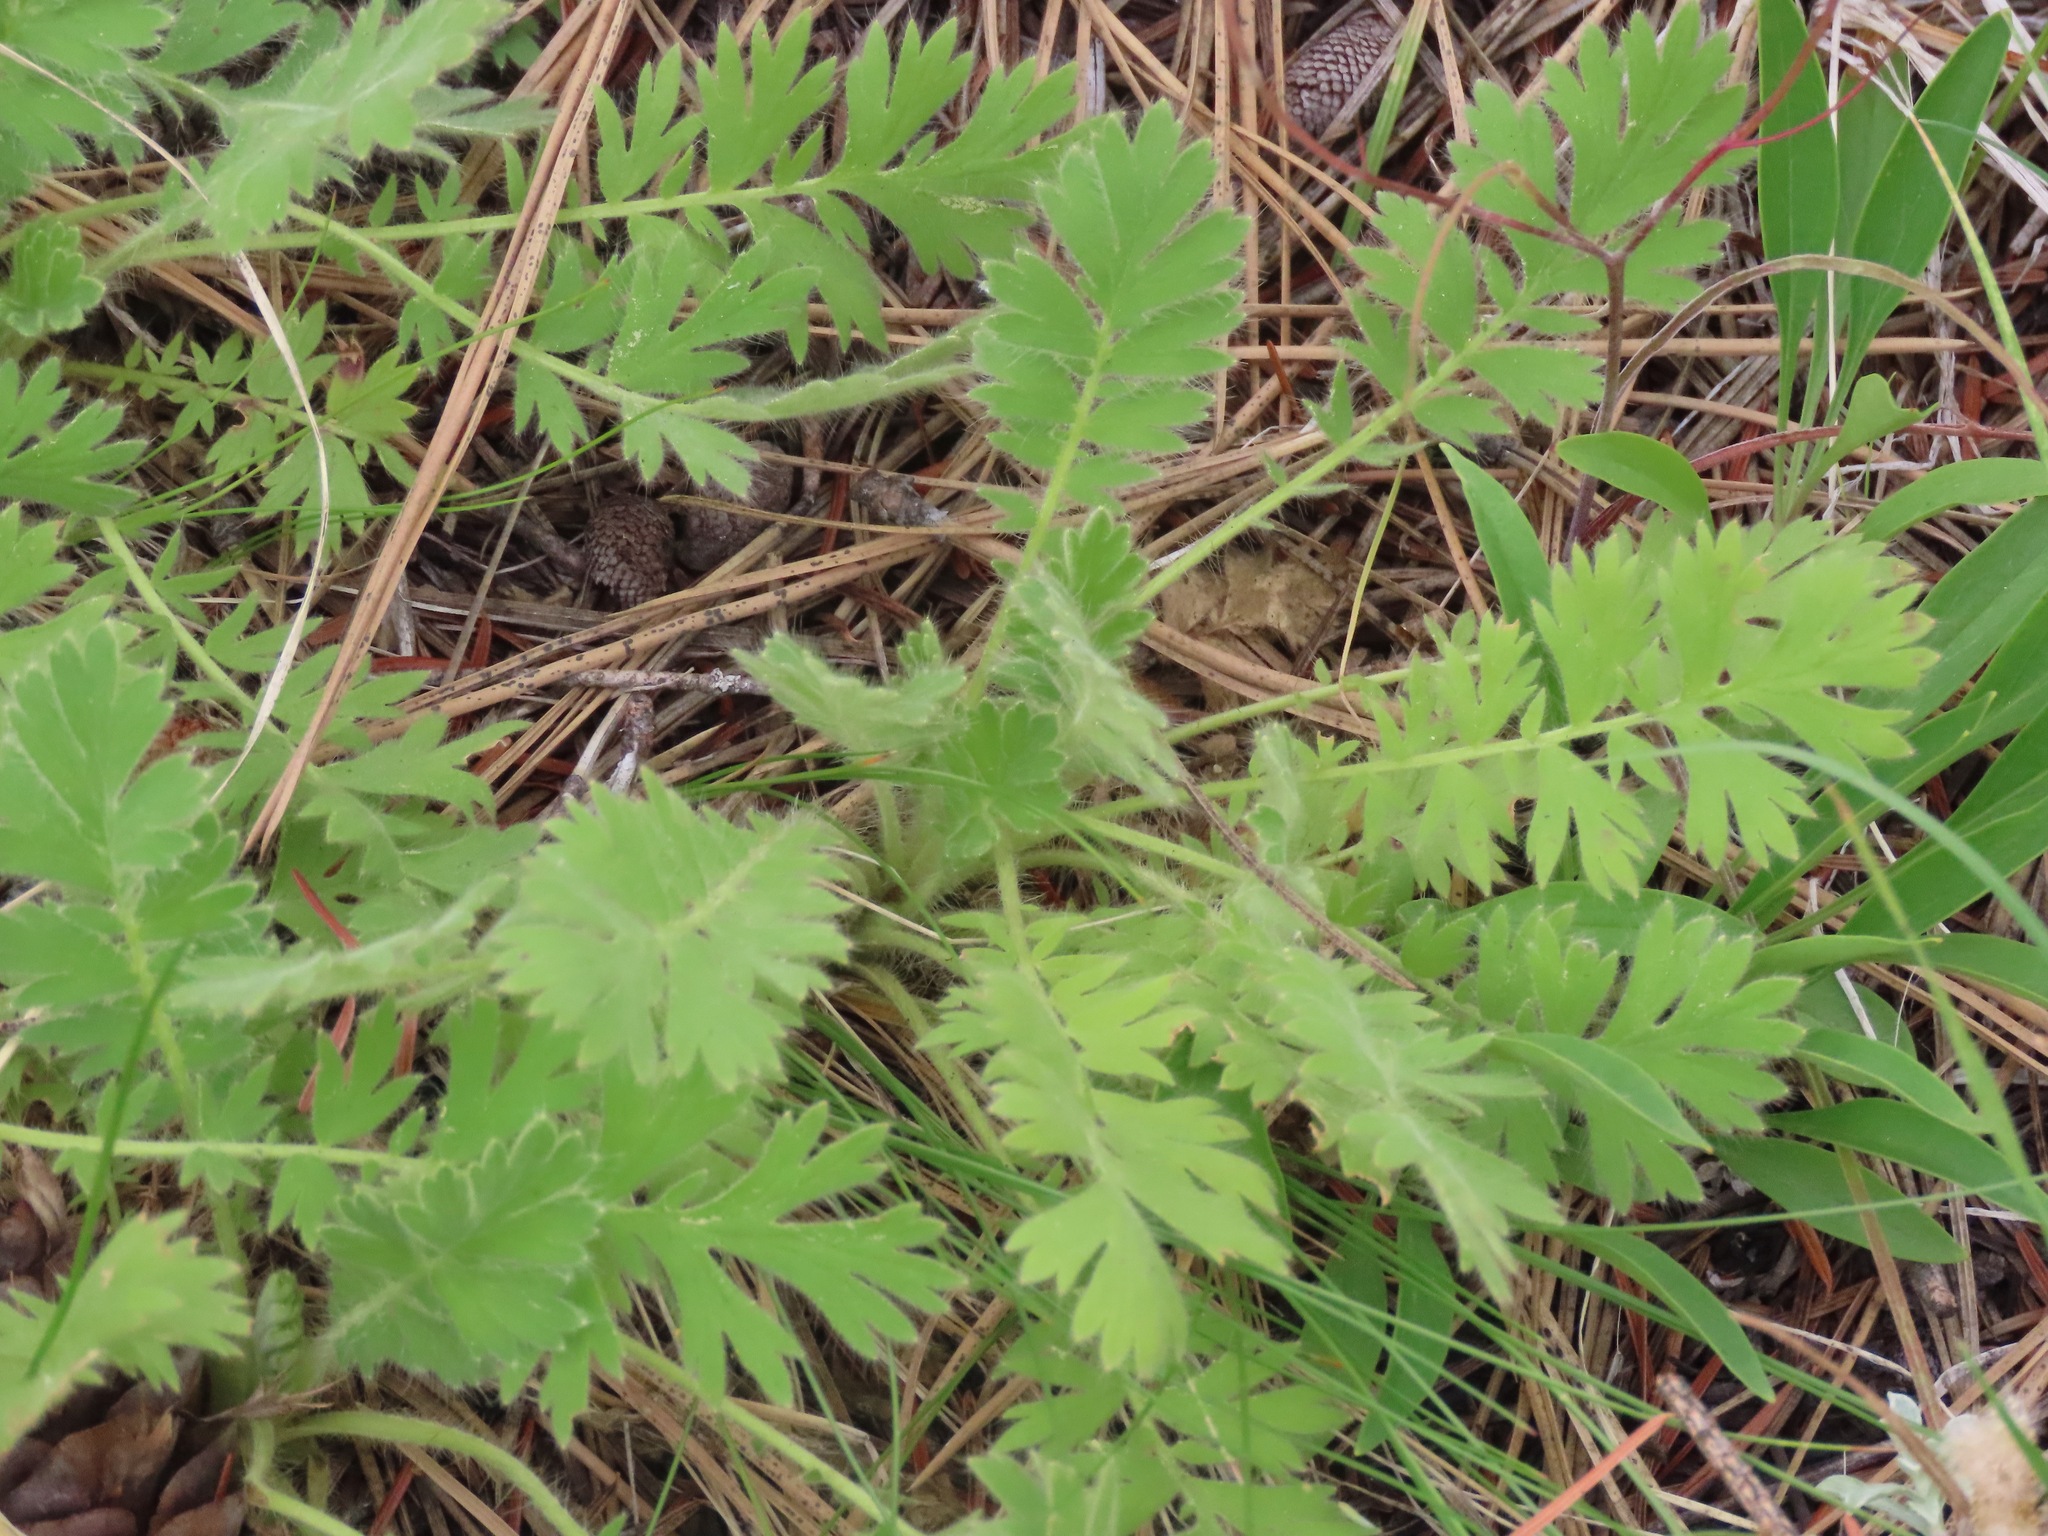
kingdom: Plantae
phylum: Tracheophyta
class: Magnoliopsida
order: Rosales
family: Rosaceae
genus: Geum
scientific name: Geum triflorum
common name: Old man's whiskers
